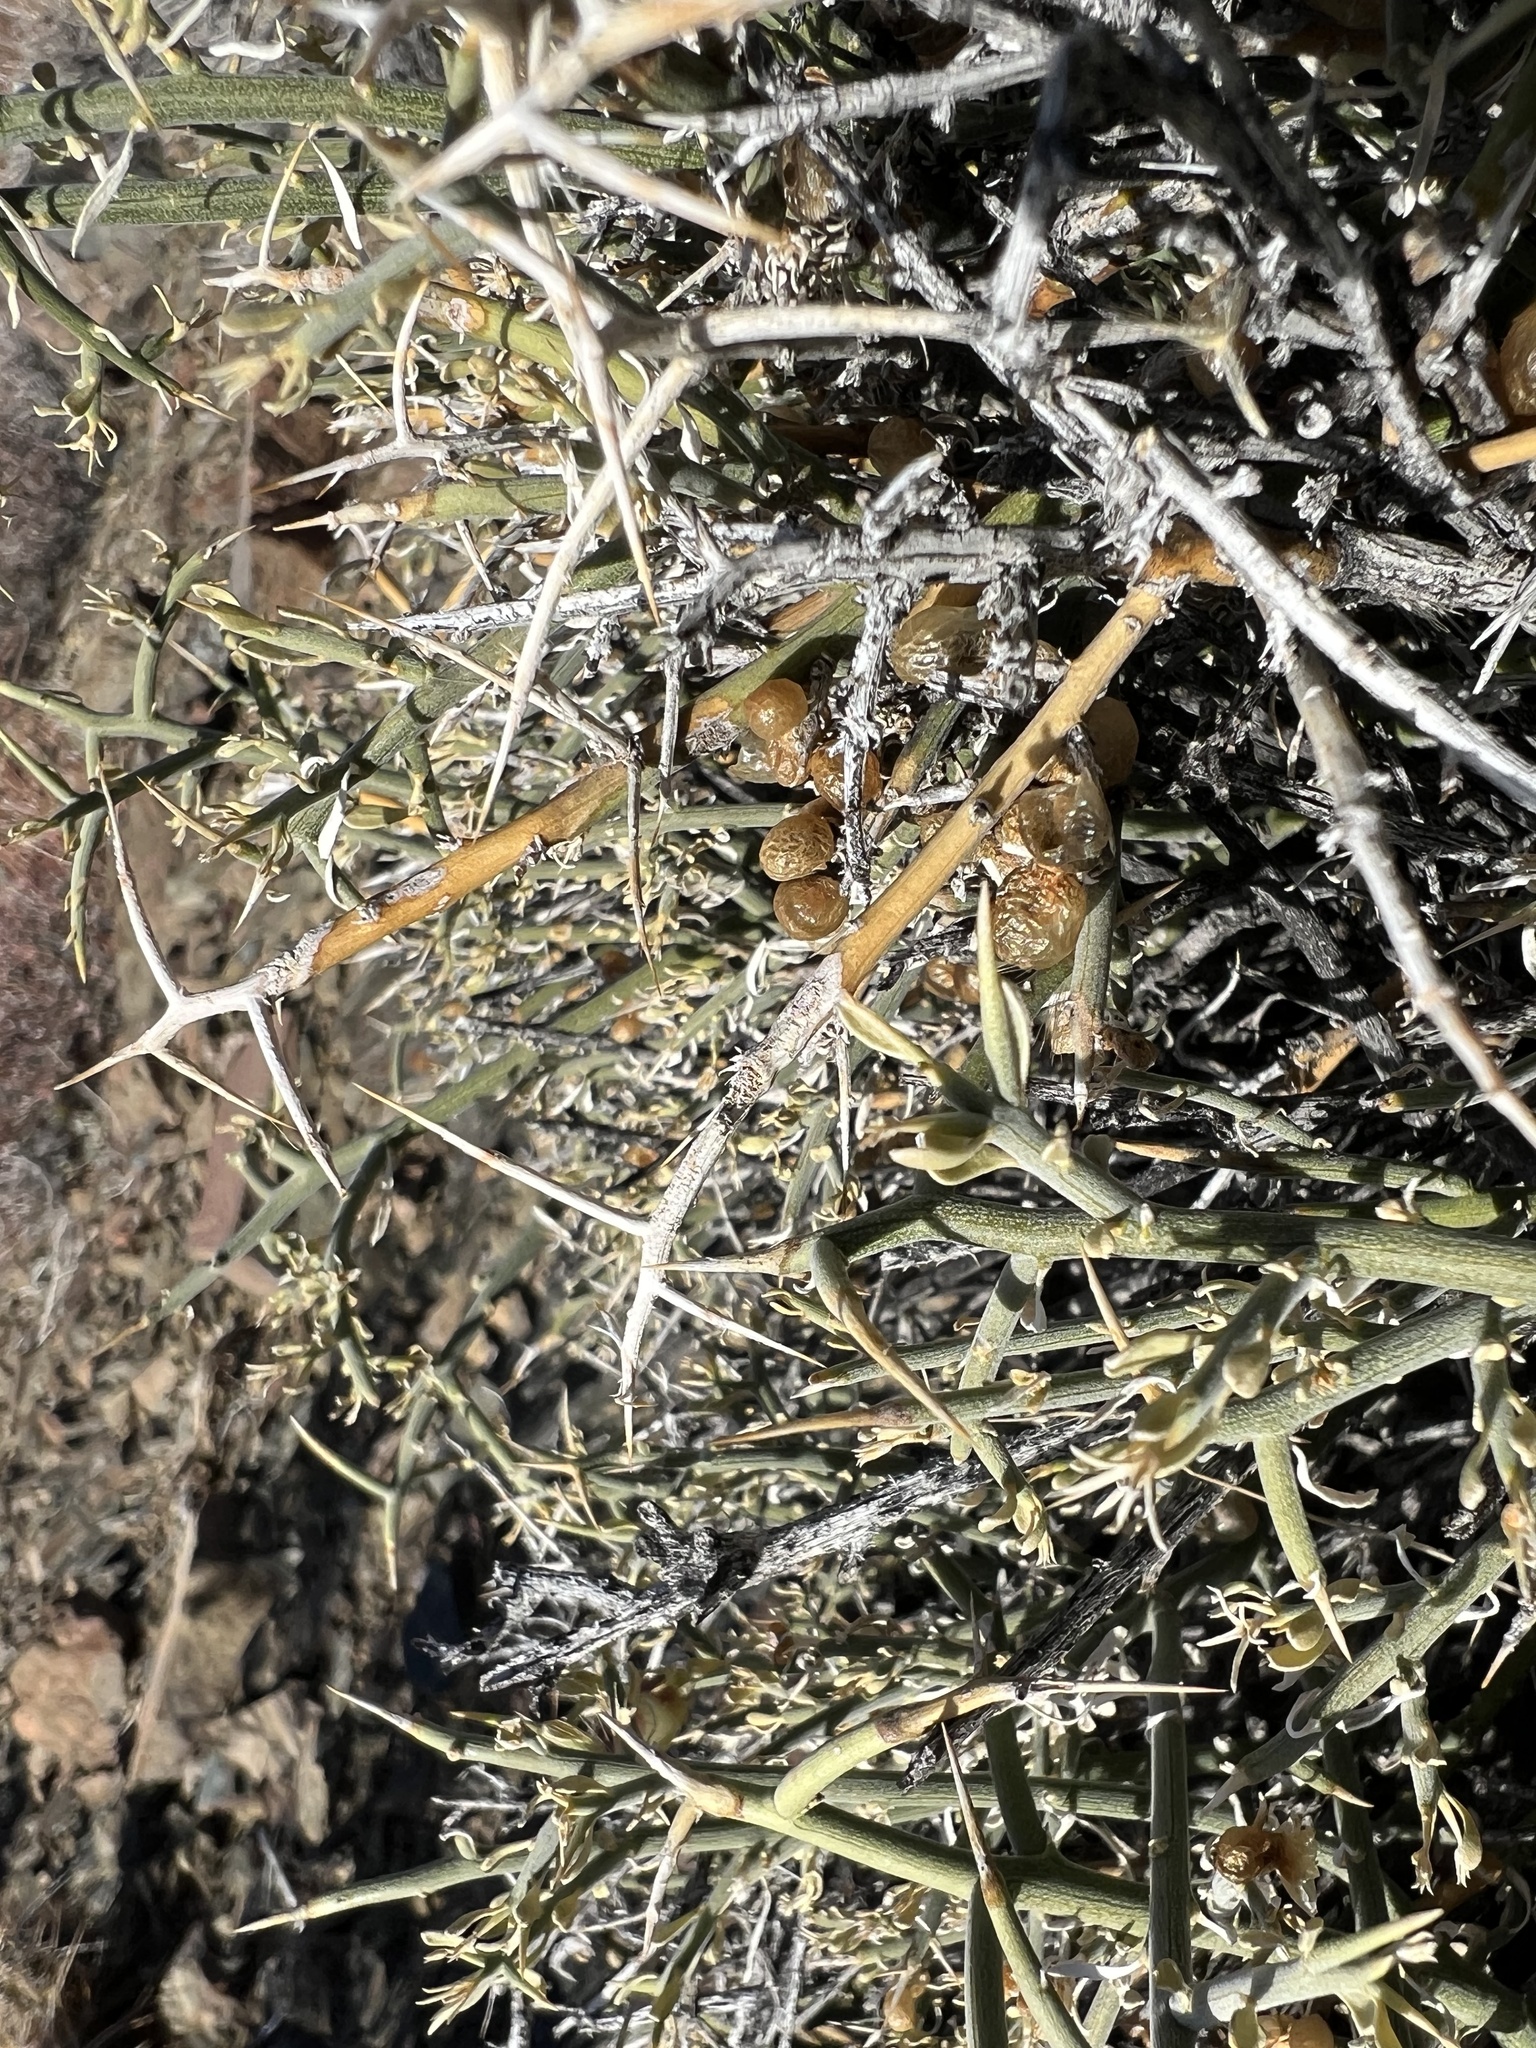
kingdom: Plantae
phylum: Tracheophyta
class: Magnoliopsida
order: Lamiales
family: Oleaceae
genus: Menodora
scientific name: Menodora spinescens
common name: Spiny menodora
